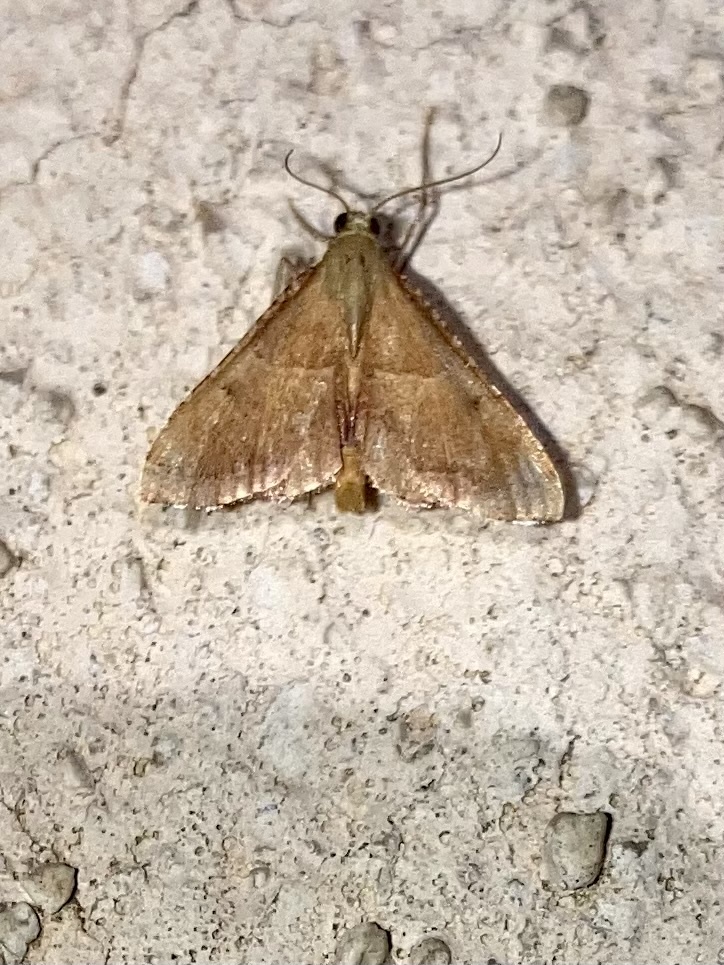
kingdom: Animalia
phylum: Arthropoda
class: Insecta
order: Lepidoptera
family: Pyralidae
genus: Endotricha
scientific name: Endotricha flammealis
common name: Rosy tabby
